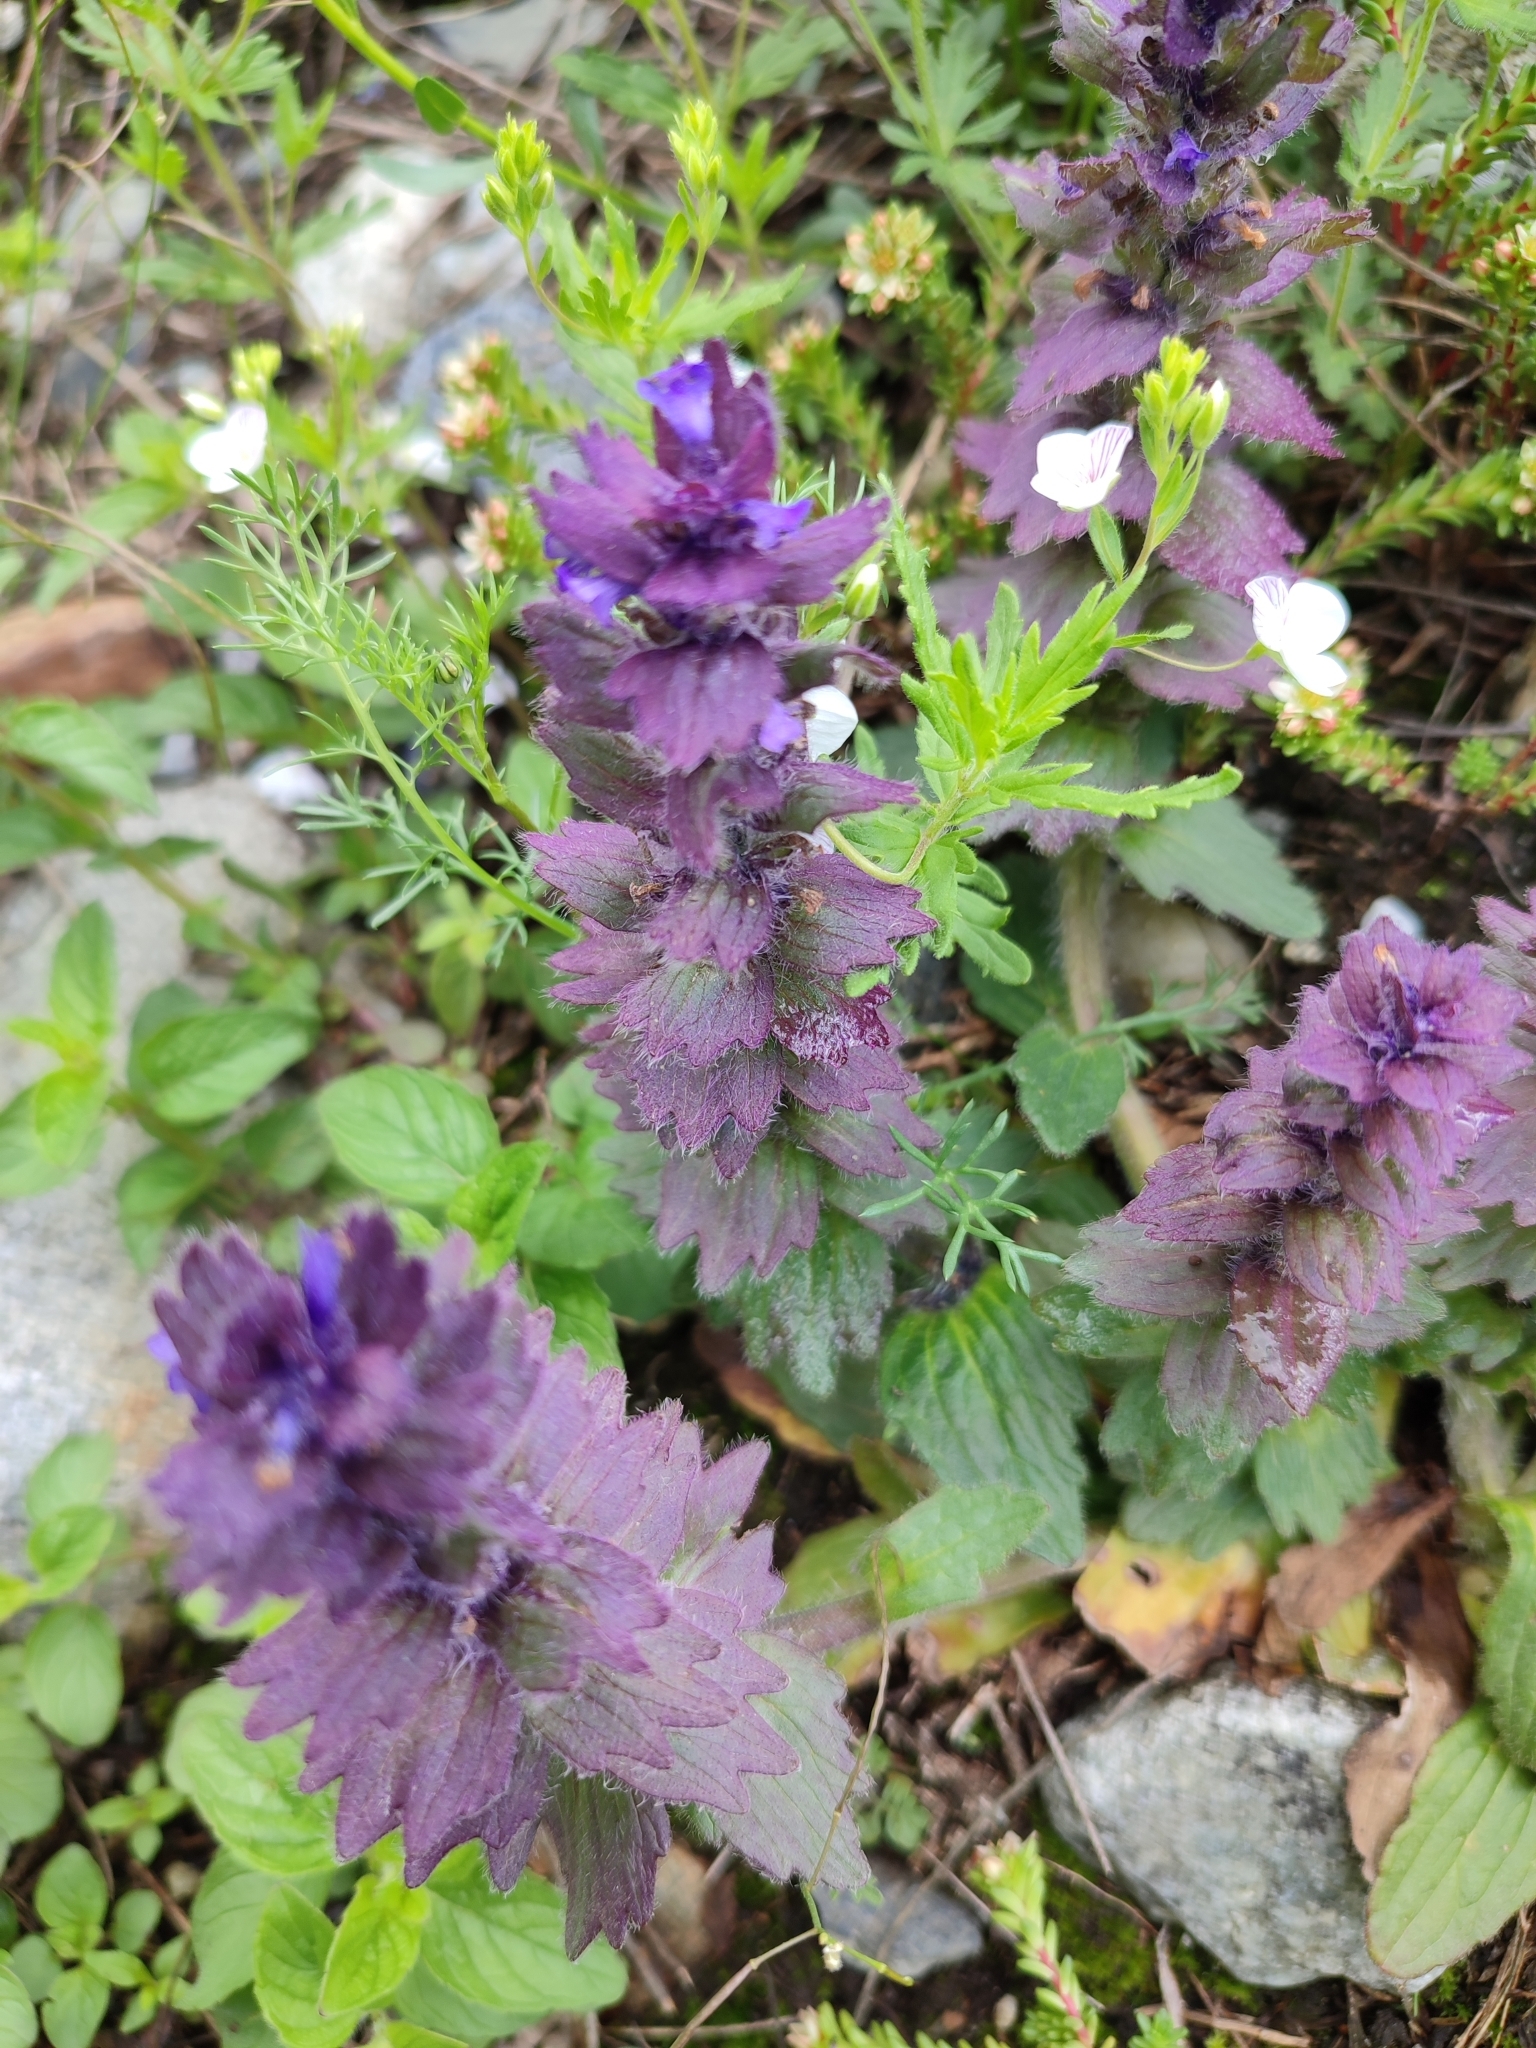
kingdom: Plantae
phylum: Tracheophyta
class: Magnoliopsida
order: Lamiales
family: Lamiaceae
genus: Ajuga
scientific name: Ajuga orientalis
